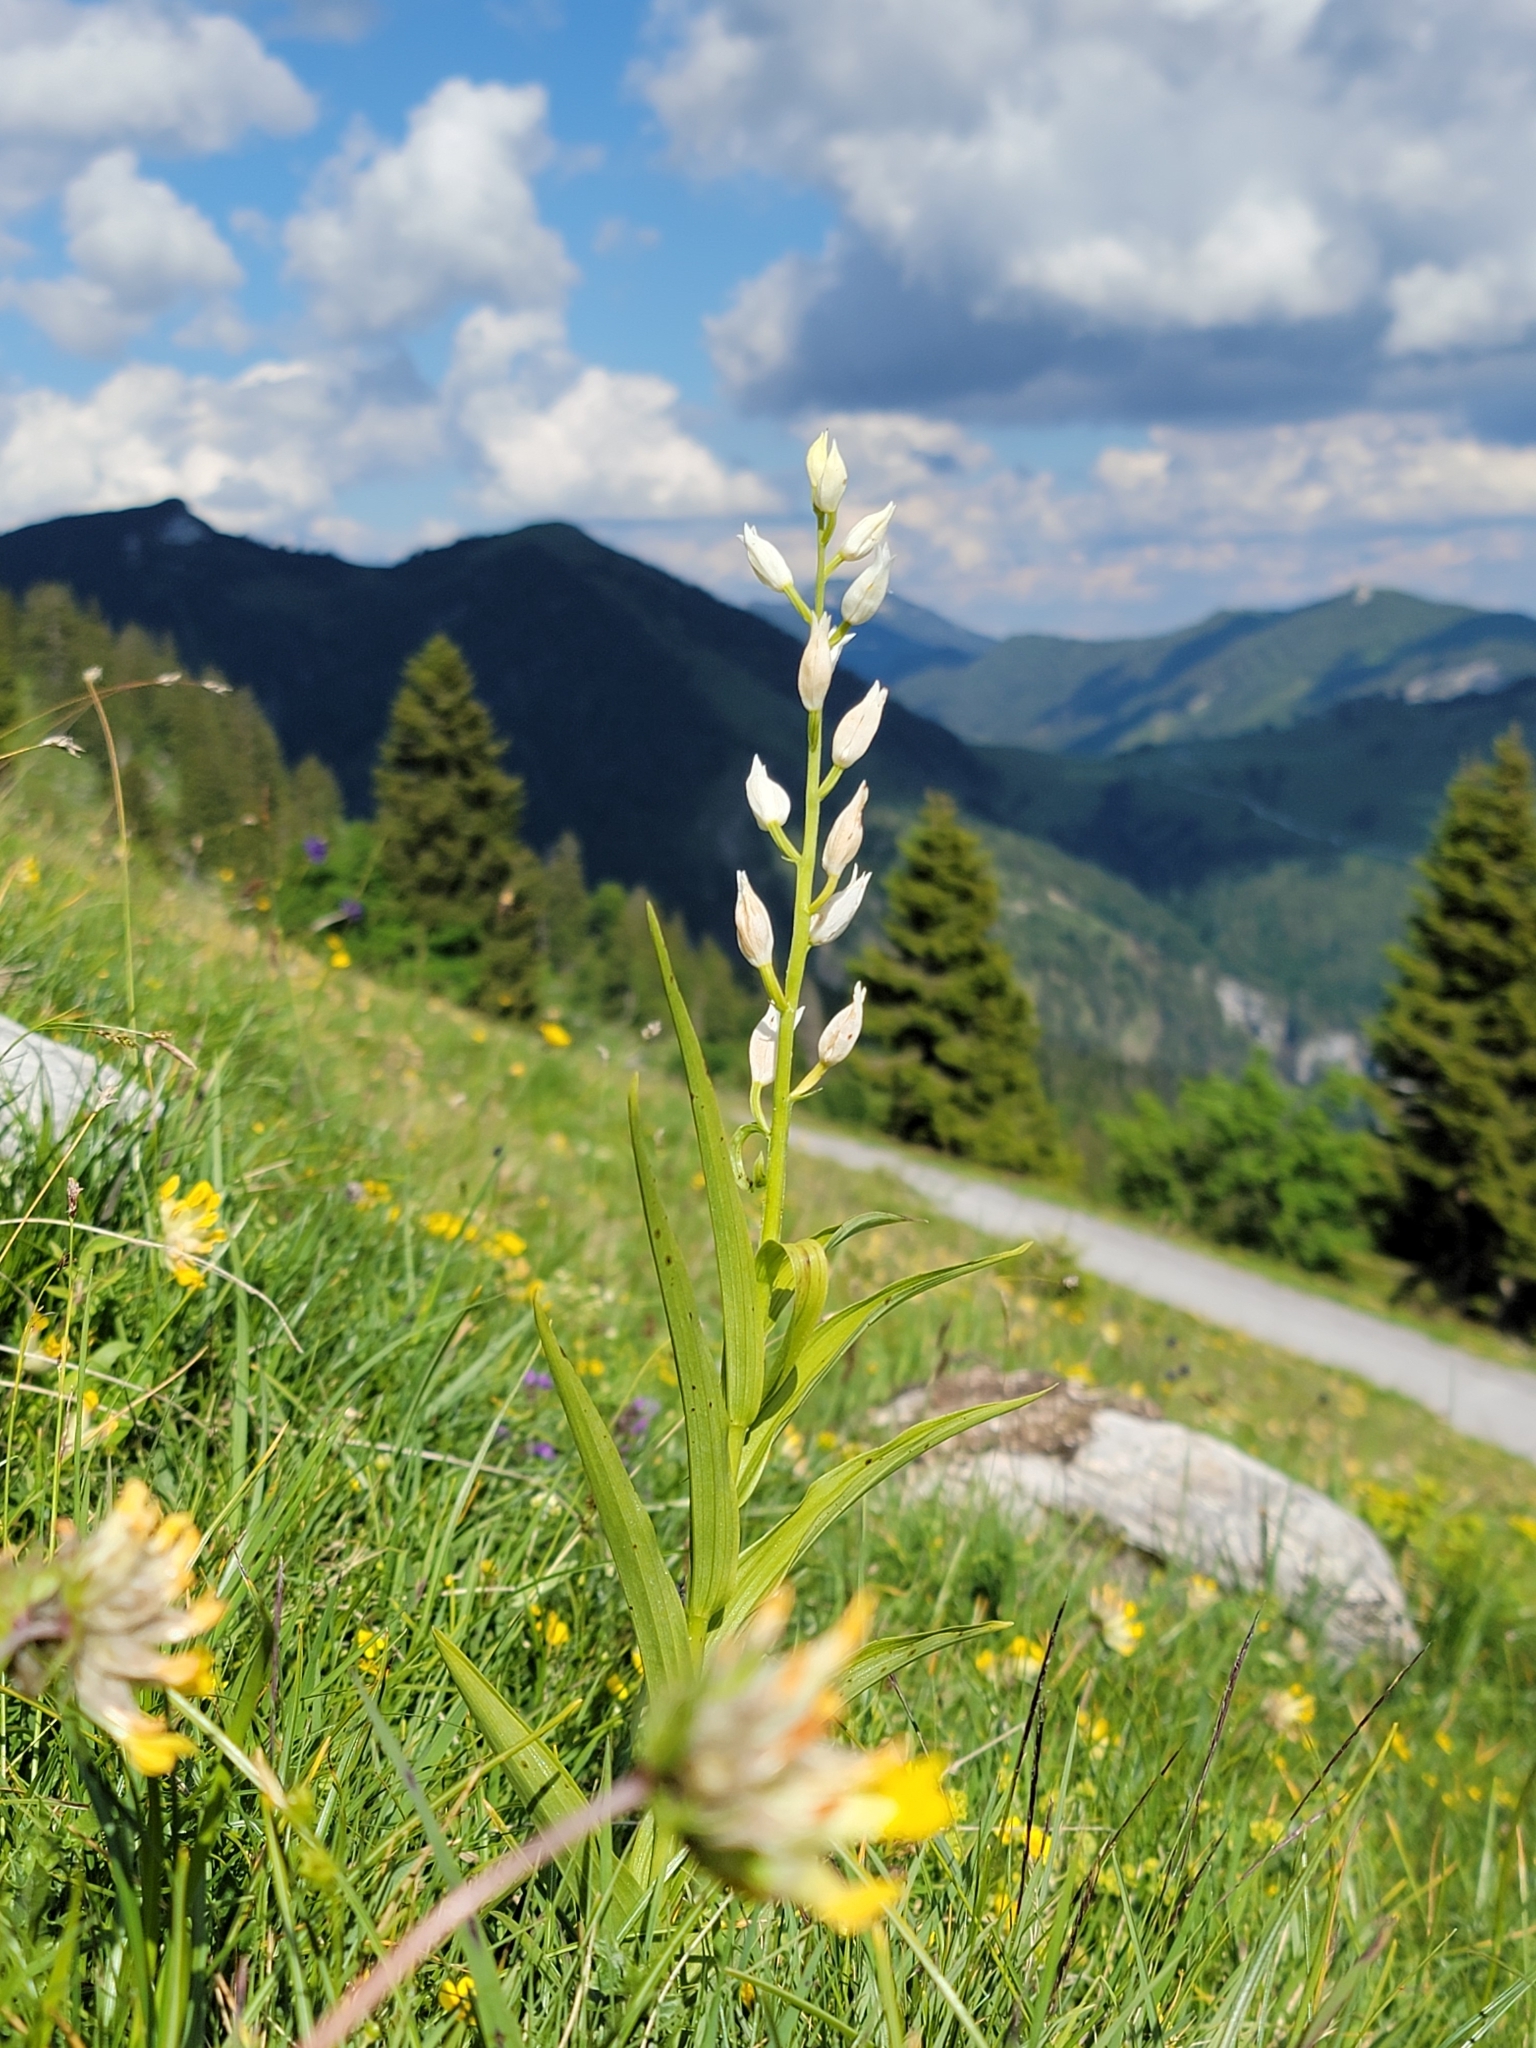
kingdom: Plantae
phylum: Tracheophyta
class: Liliopsida
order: Asparagales
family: Orchidaceae
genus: Cephalanthera
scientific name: Cephalanthera longifolia
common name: Narrow-leaved helleborine
